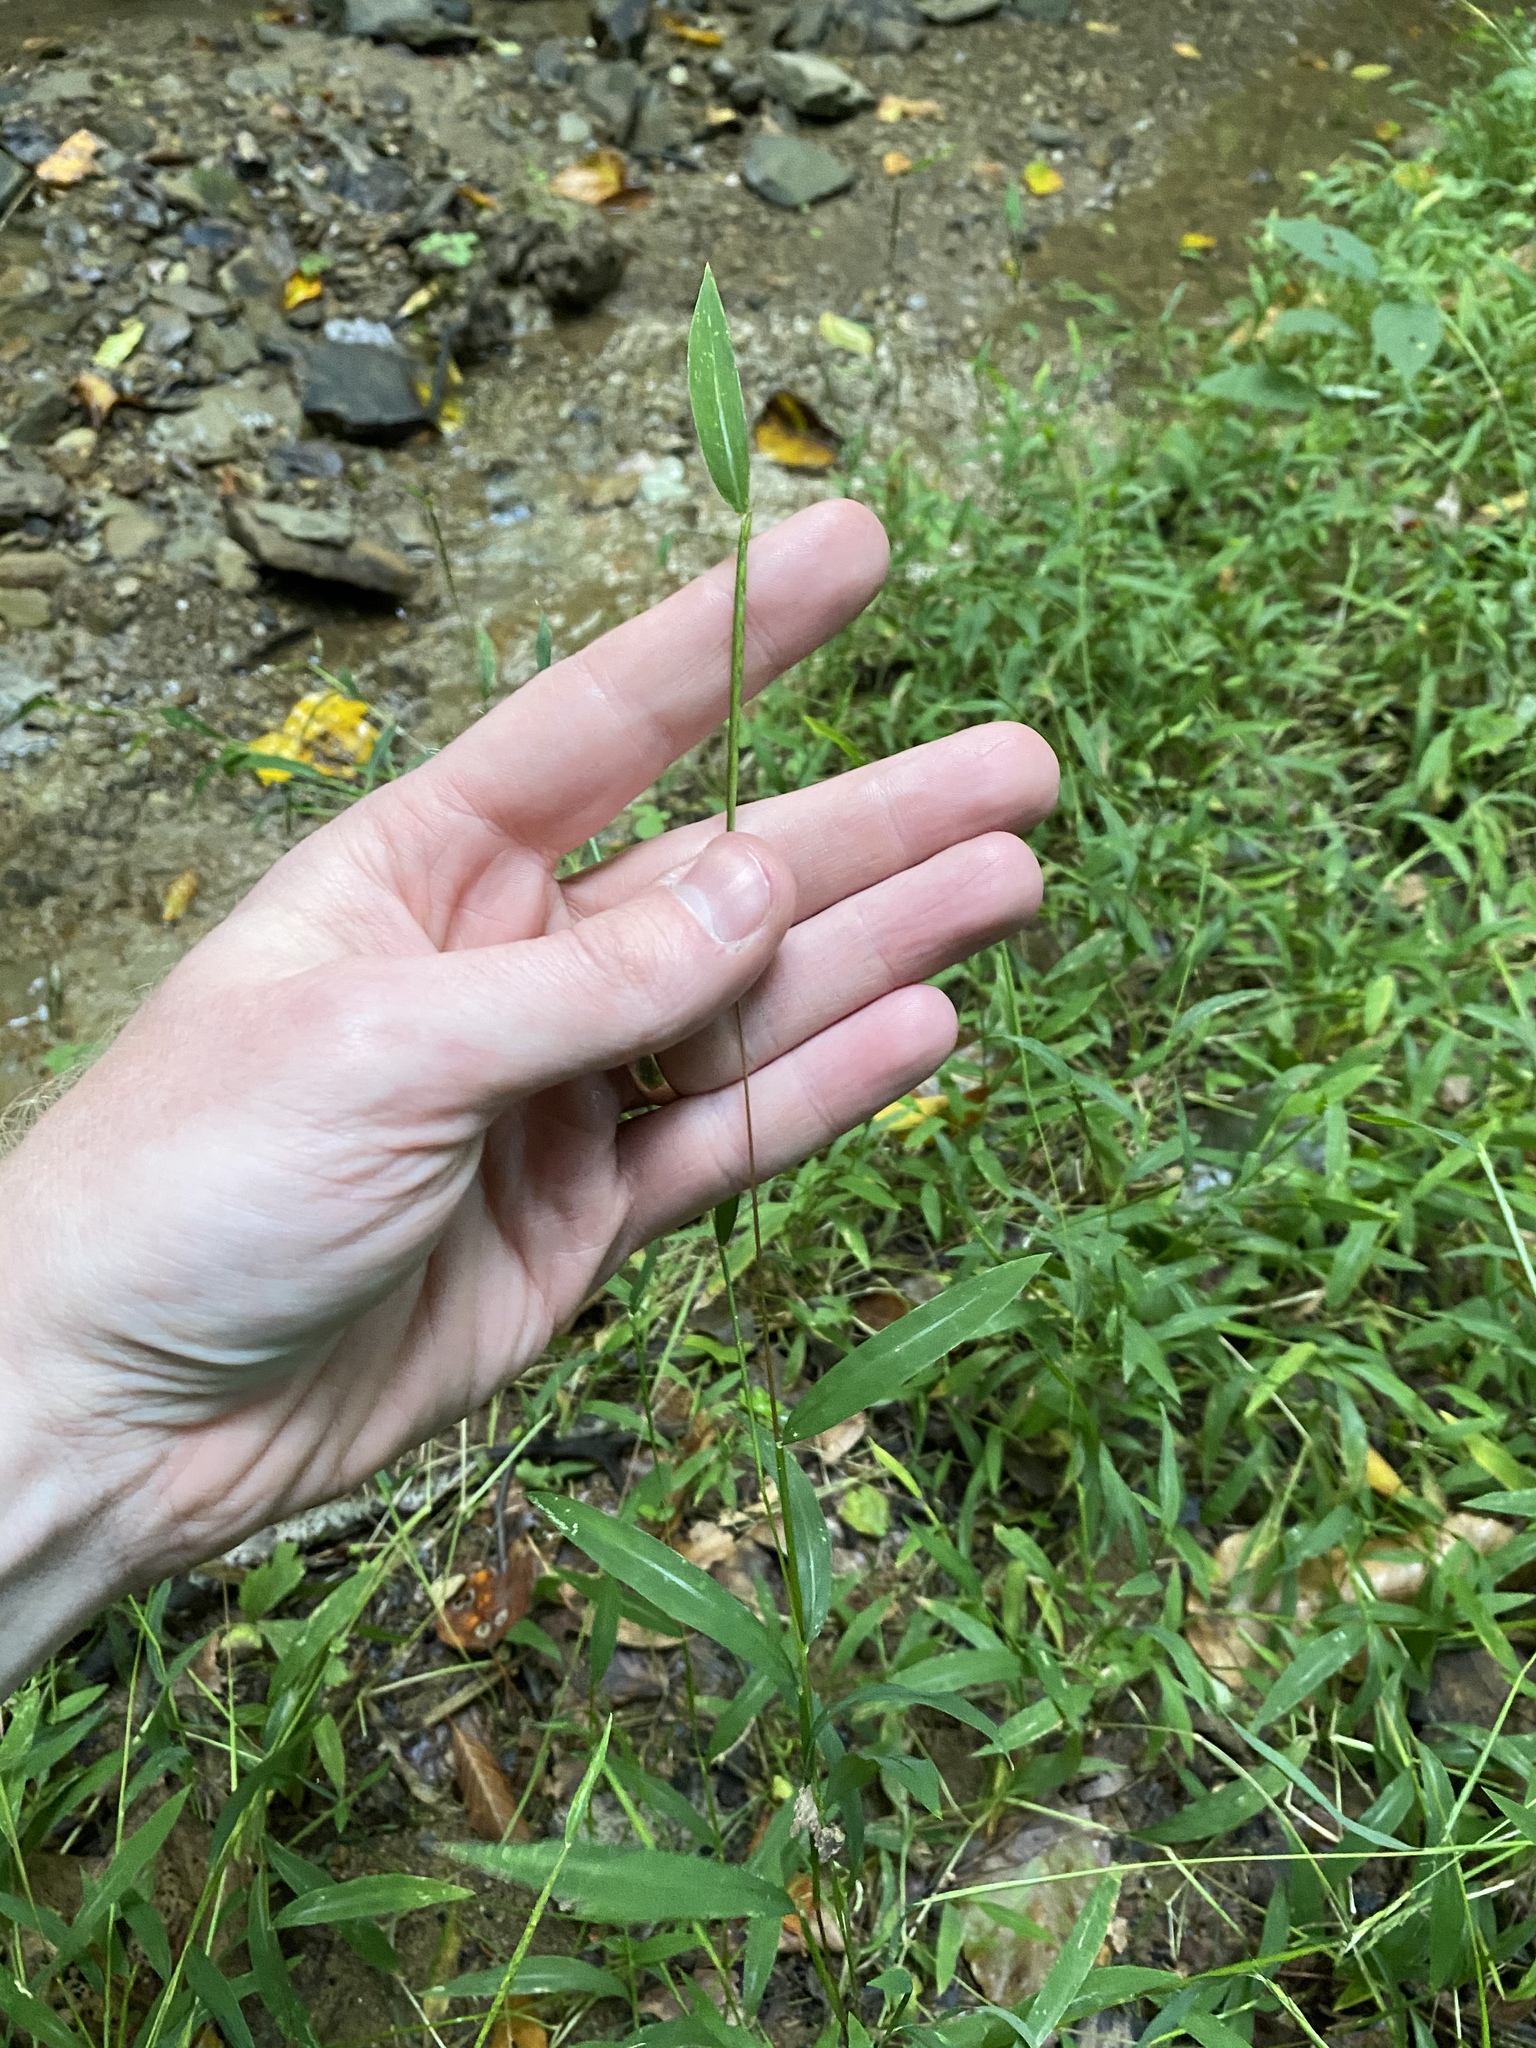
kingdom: Plantae
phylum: Tracheophyta
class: Liliopsida
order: Poales
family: Poaceae
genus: Microstegium
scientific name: Microstegium vimineum
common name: Japanese stiltgrass
